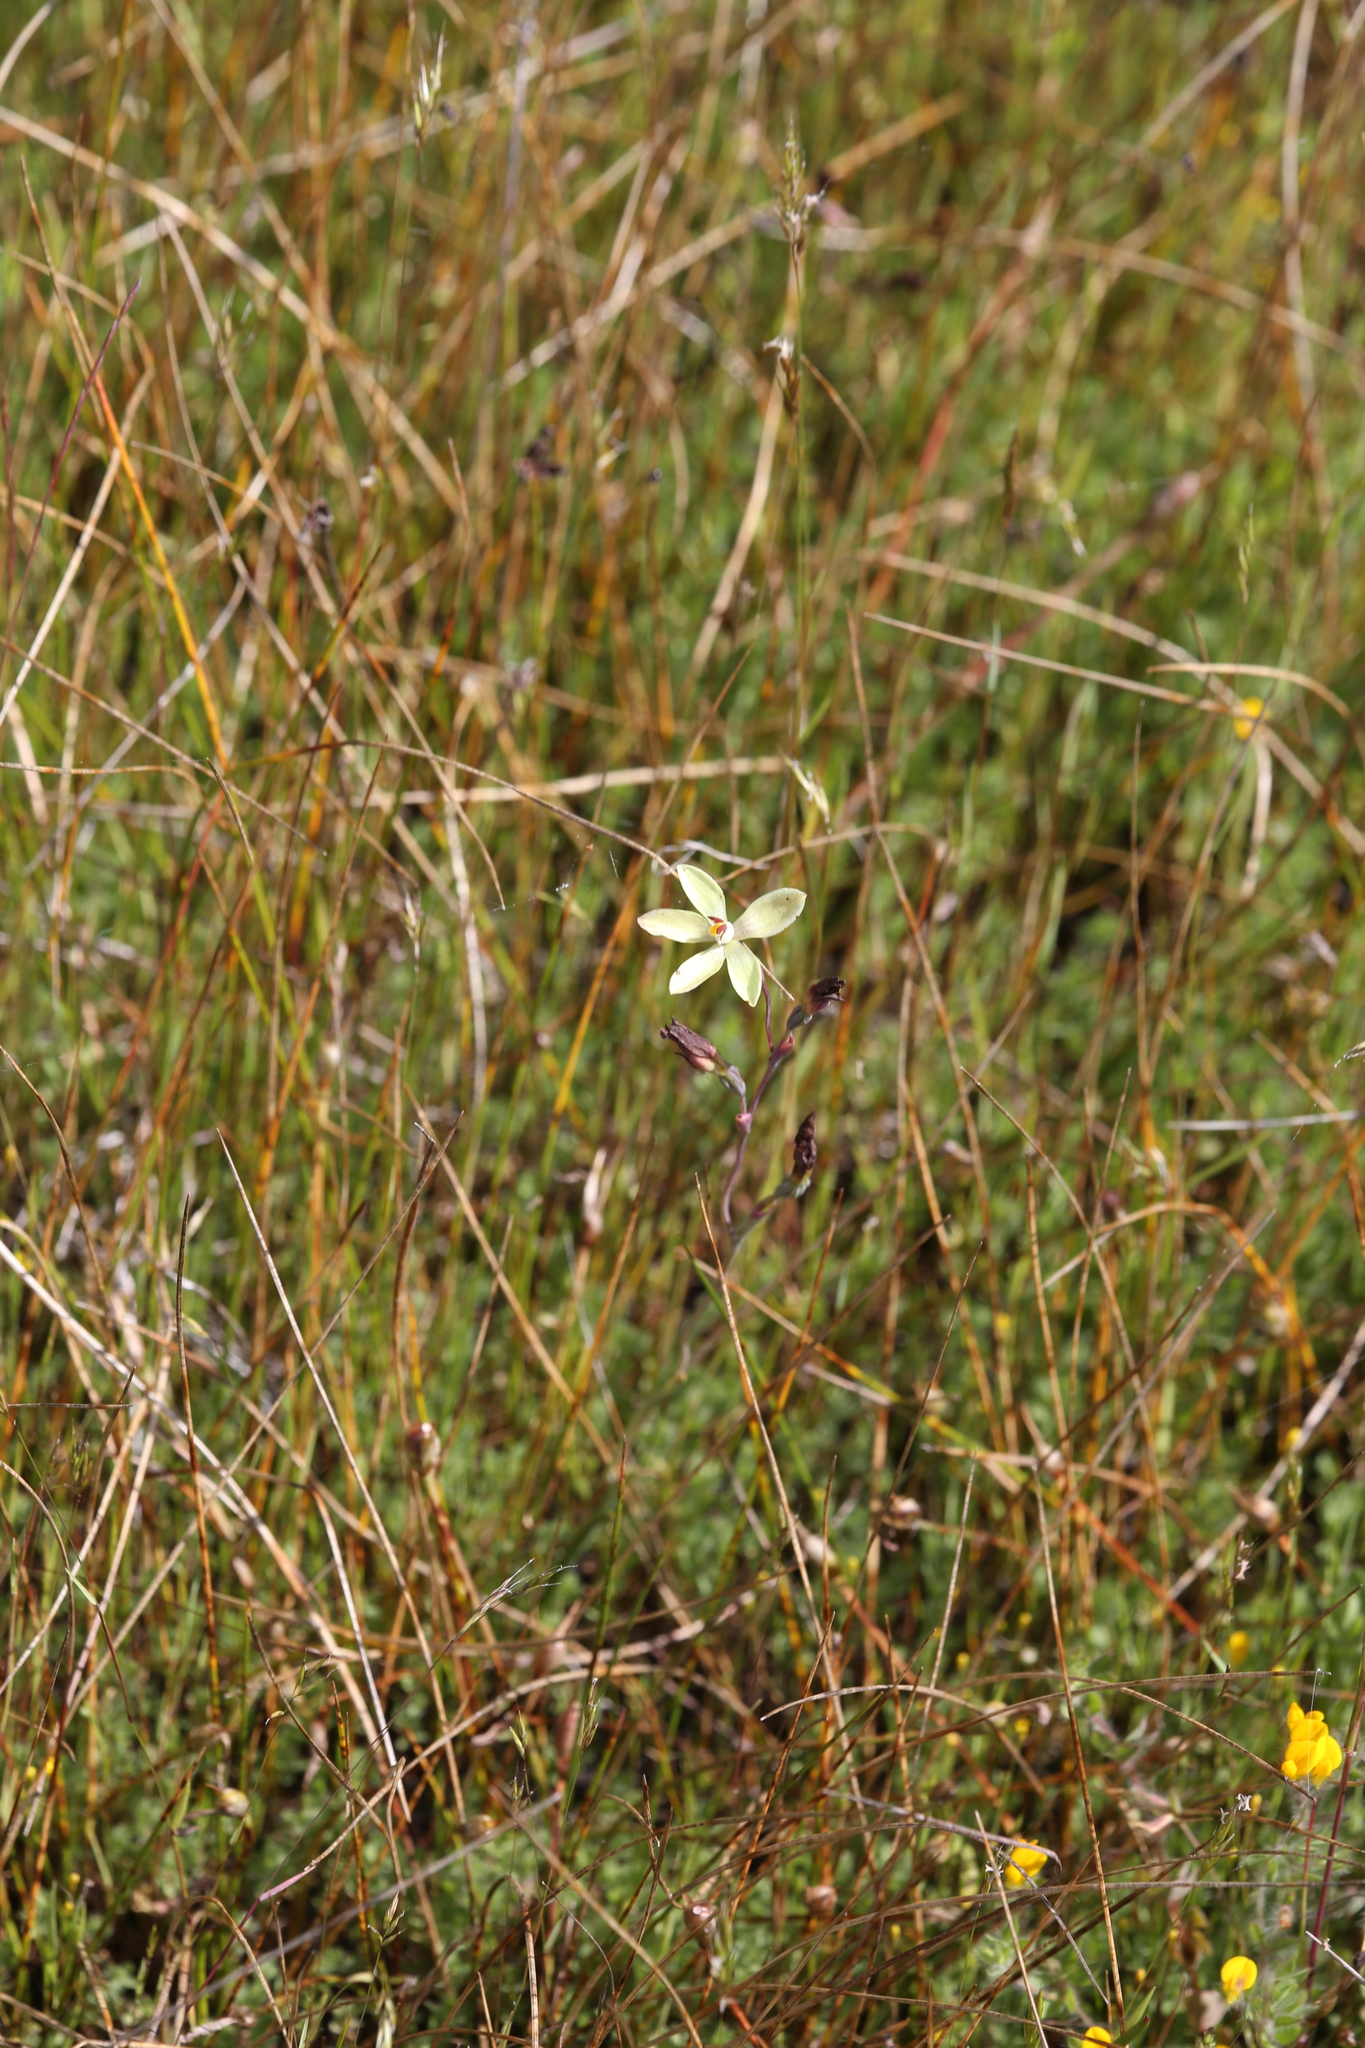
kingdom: Plantae
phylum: Tracheophyta
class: Liliopsida
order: Asparagales
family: Orchidaceae
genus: Thelymitra
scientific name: Thelymitra antennifera
